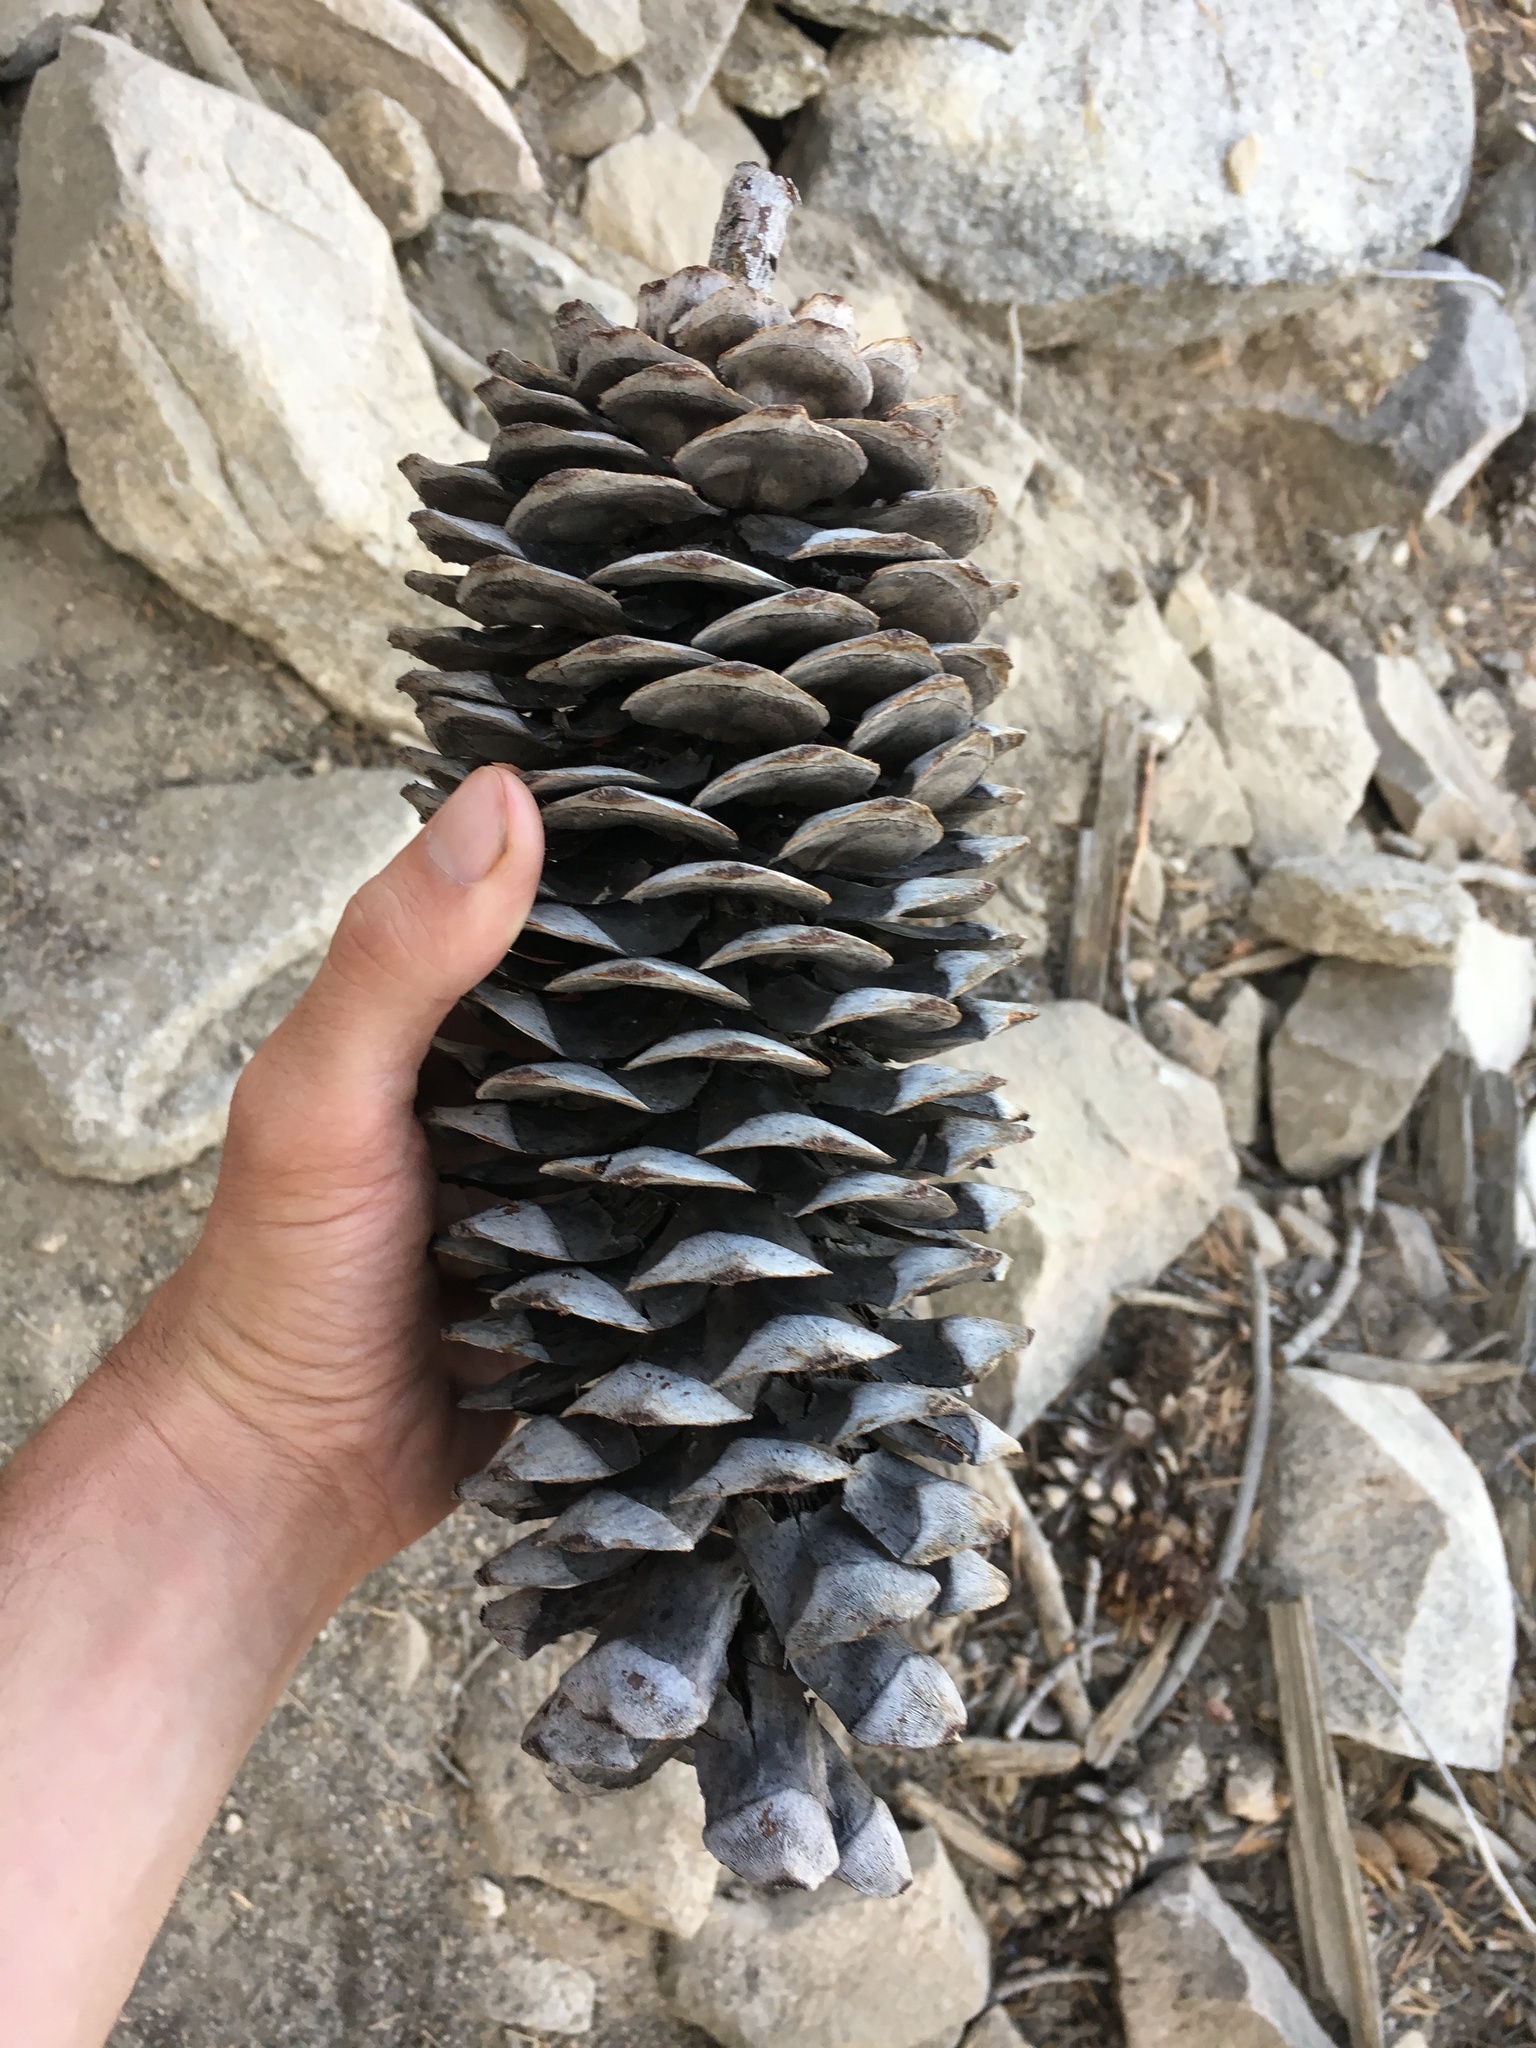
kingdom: Plantae
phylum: Tracheophyta
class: Pinopsida
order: Pinales
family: Pinaceae
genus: Pinus
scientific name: Pinus lambertiana
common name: Sugar pine
